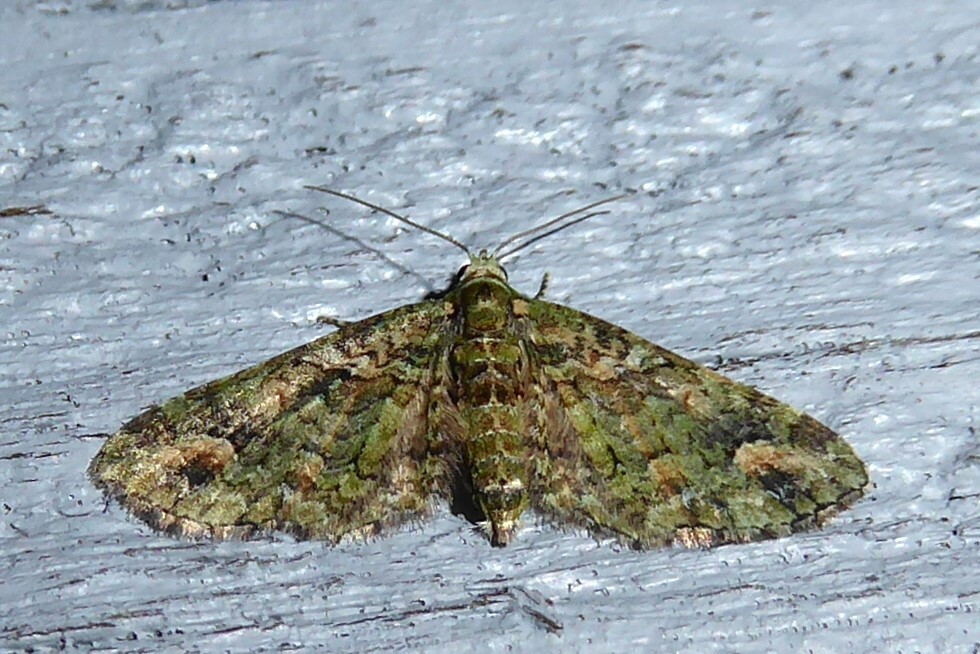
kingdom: Animalia
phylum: Arthropoda
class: Insecta
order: Lepidoptera
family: Geometridae
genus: Idaea
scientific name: Idaea mutanda
